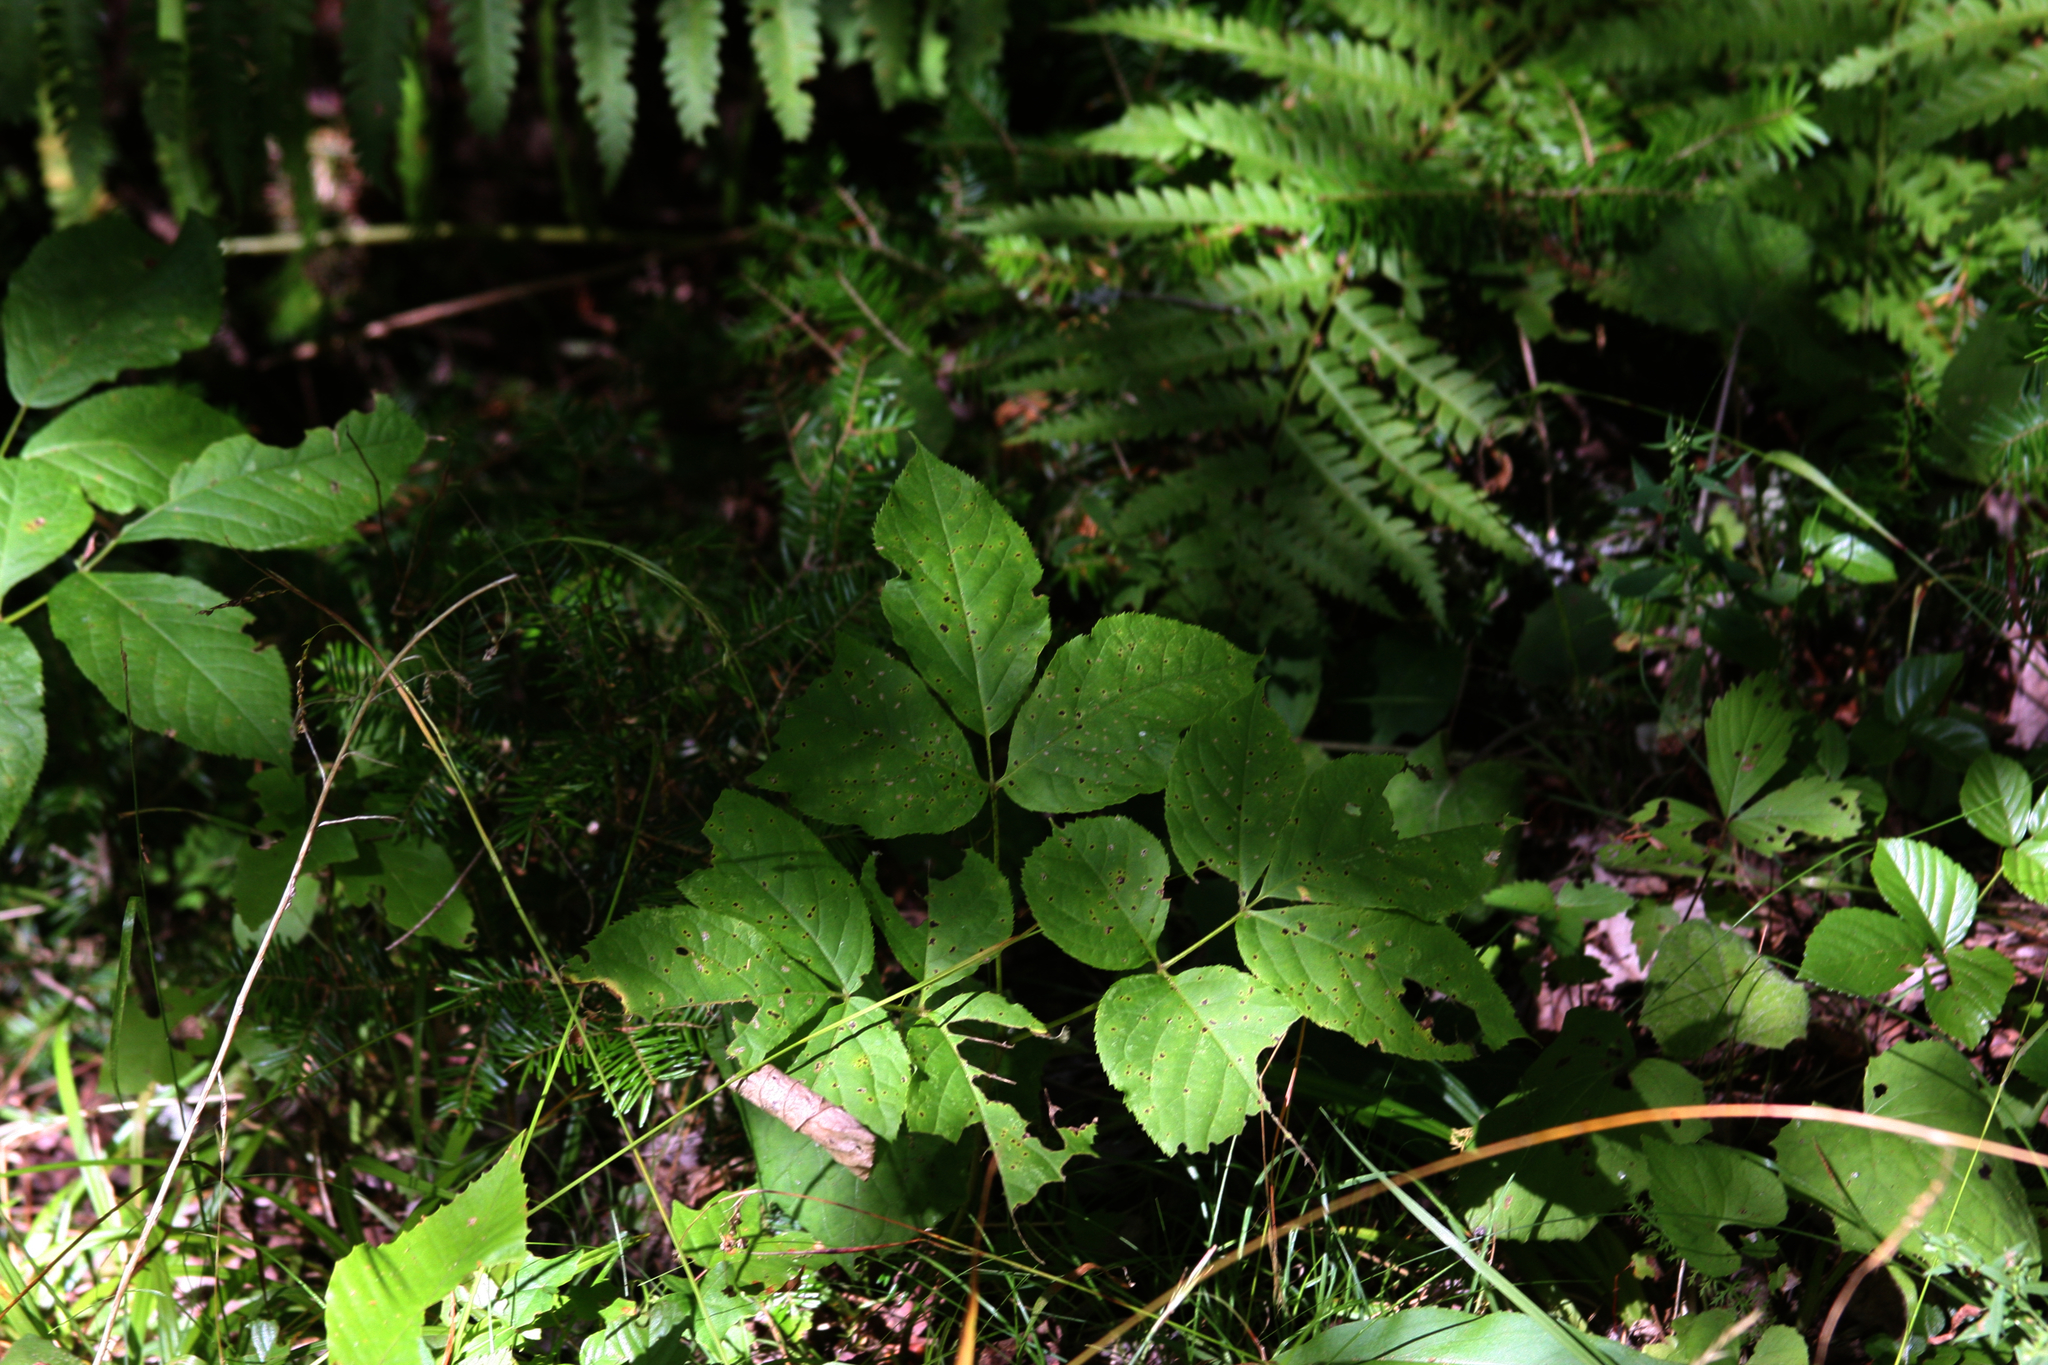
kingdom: Plantae
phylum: Tracheophyta
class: Magnoliopsida
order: Apiales
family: Araliaceae
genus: Aralia
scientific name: Aralia nudicaulis
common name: Wild sarsaparilla
